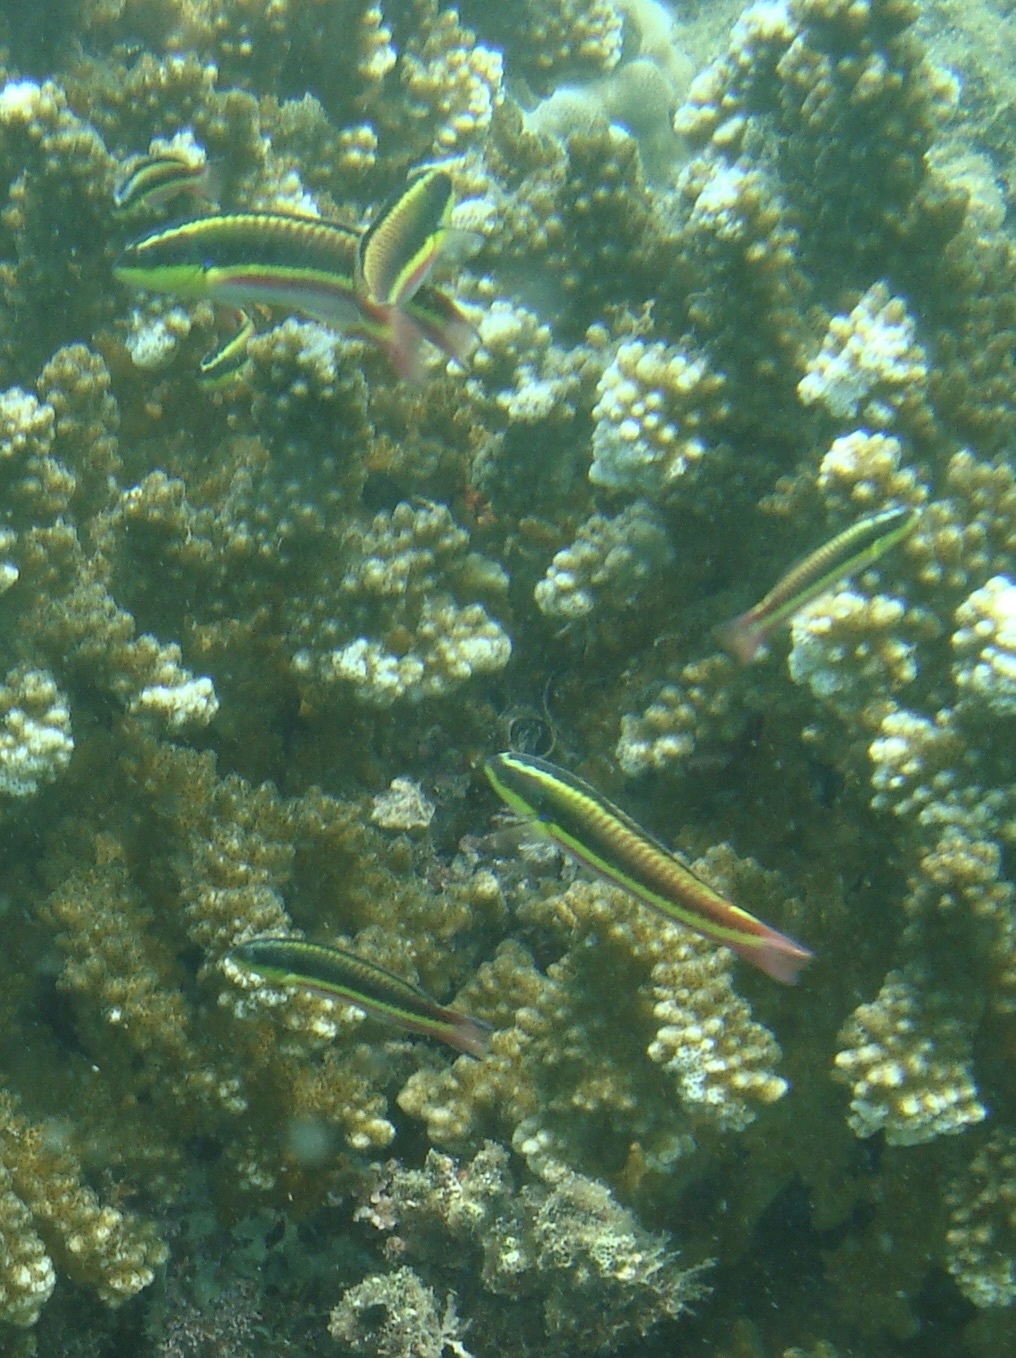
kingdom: Animalia
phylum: Chordata
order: Perciformes
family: Labridae
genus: Thalassoma
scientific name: Thalassoma lucasanum
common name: Cortez rainbow wrasse
